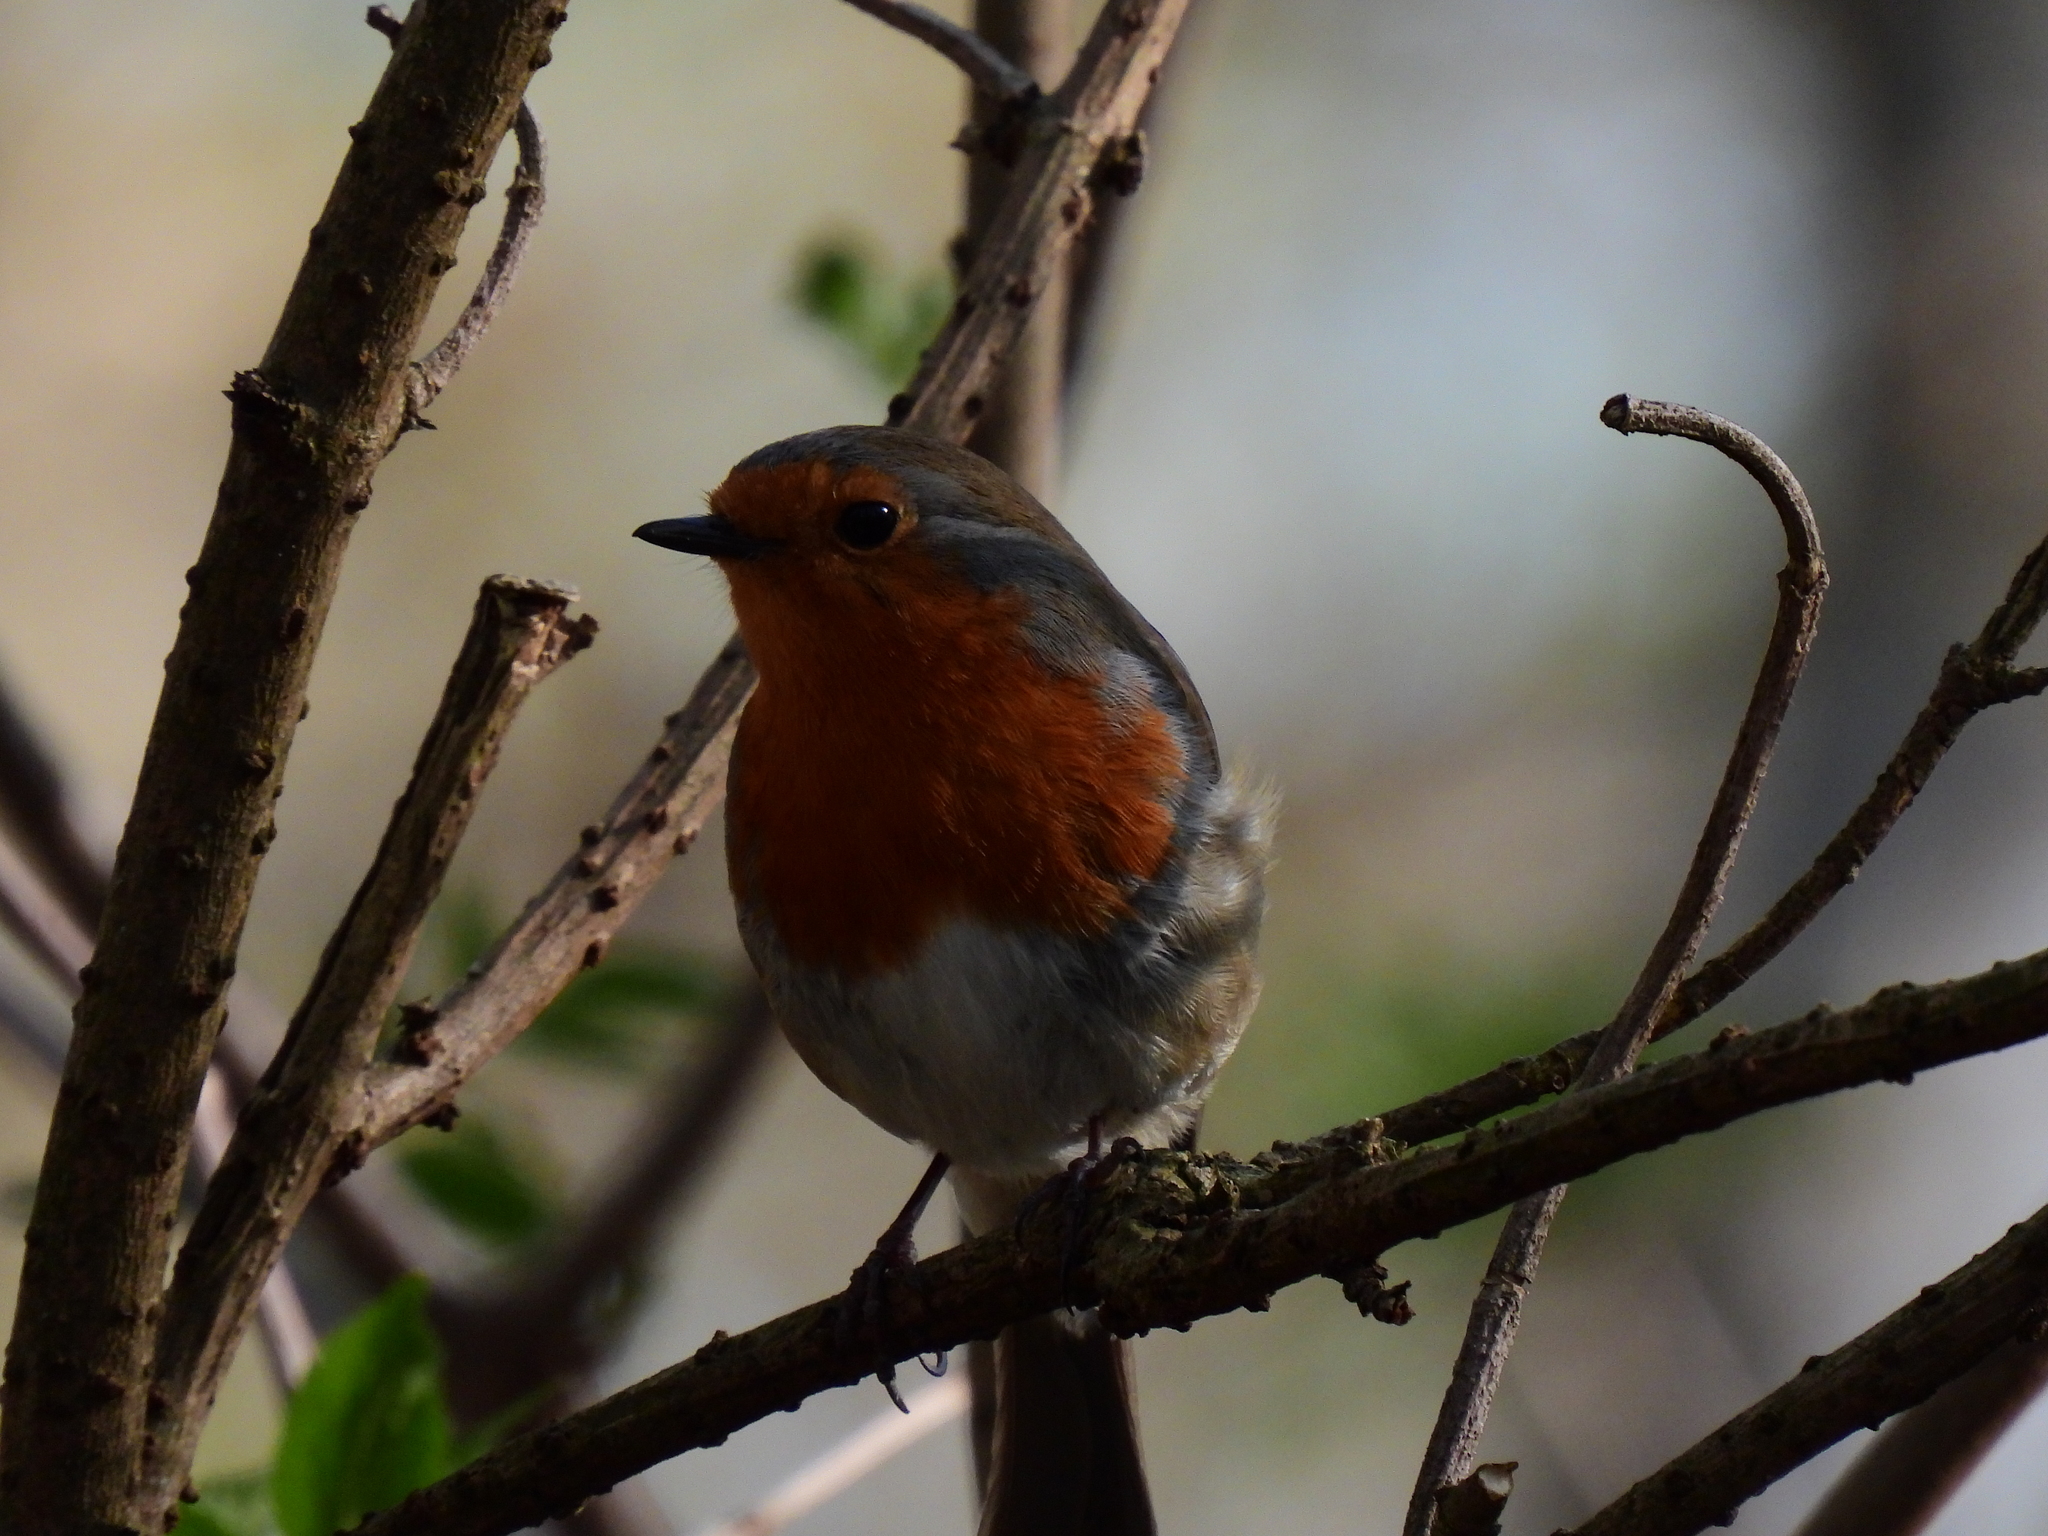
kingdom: Animalia
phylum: Chordata
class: Aves
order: Passeriformes
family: Muscicapidae
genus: Erithacus
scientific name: Erithacus rubecula
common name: European robin
